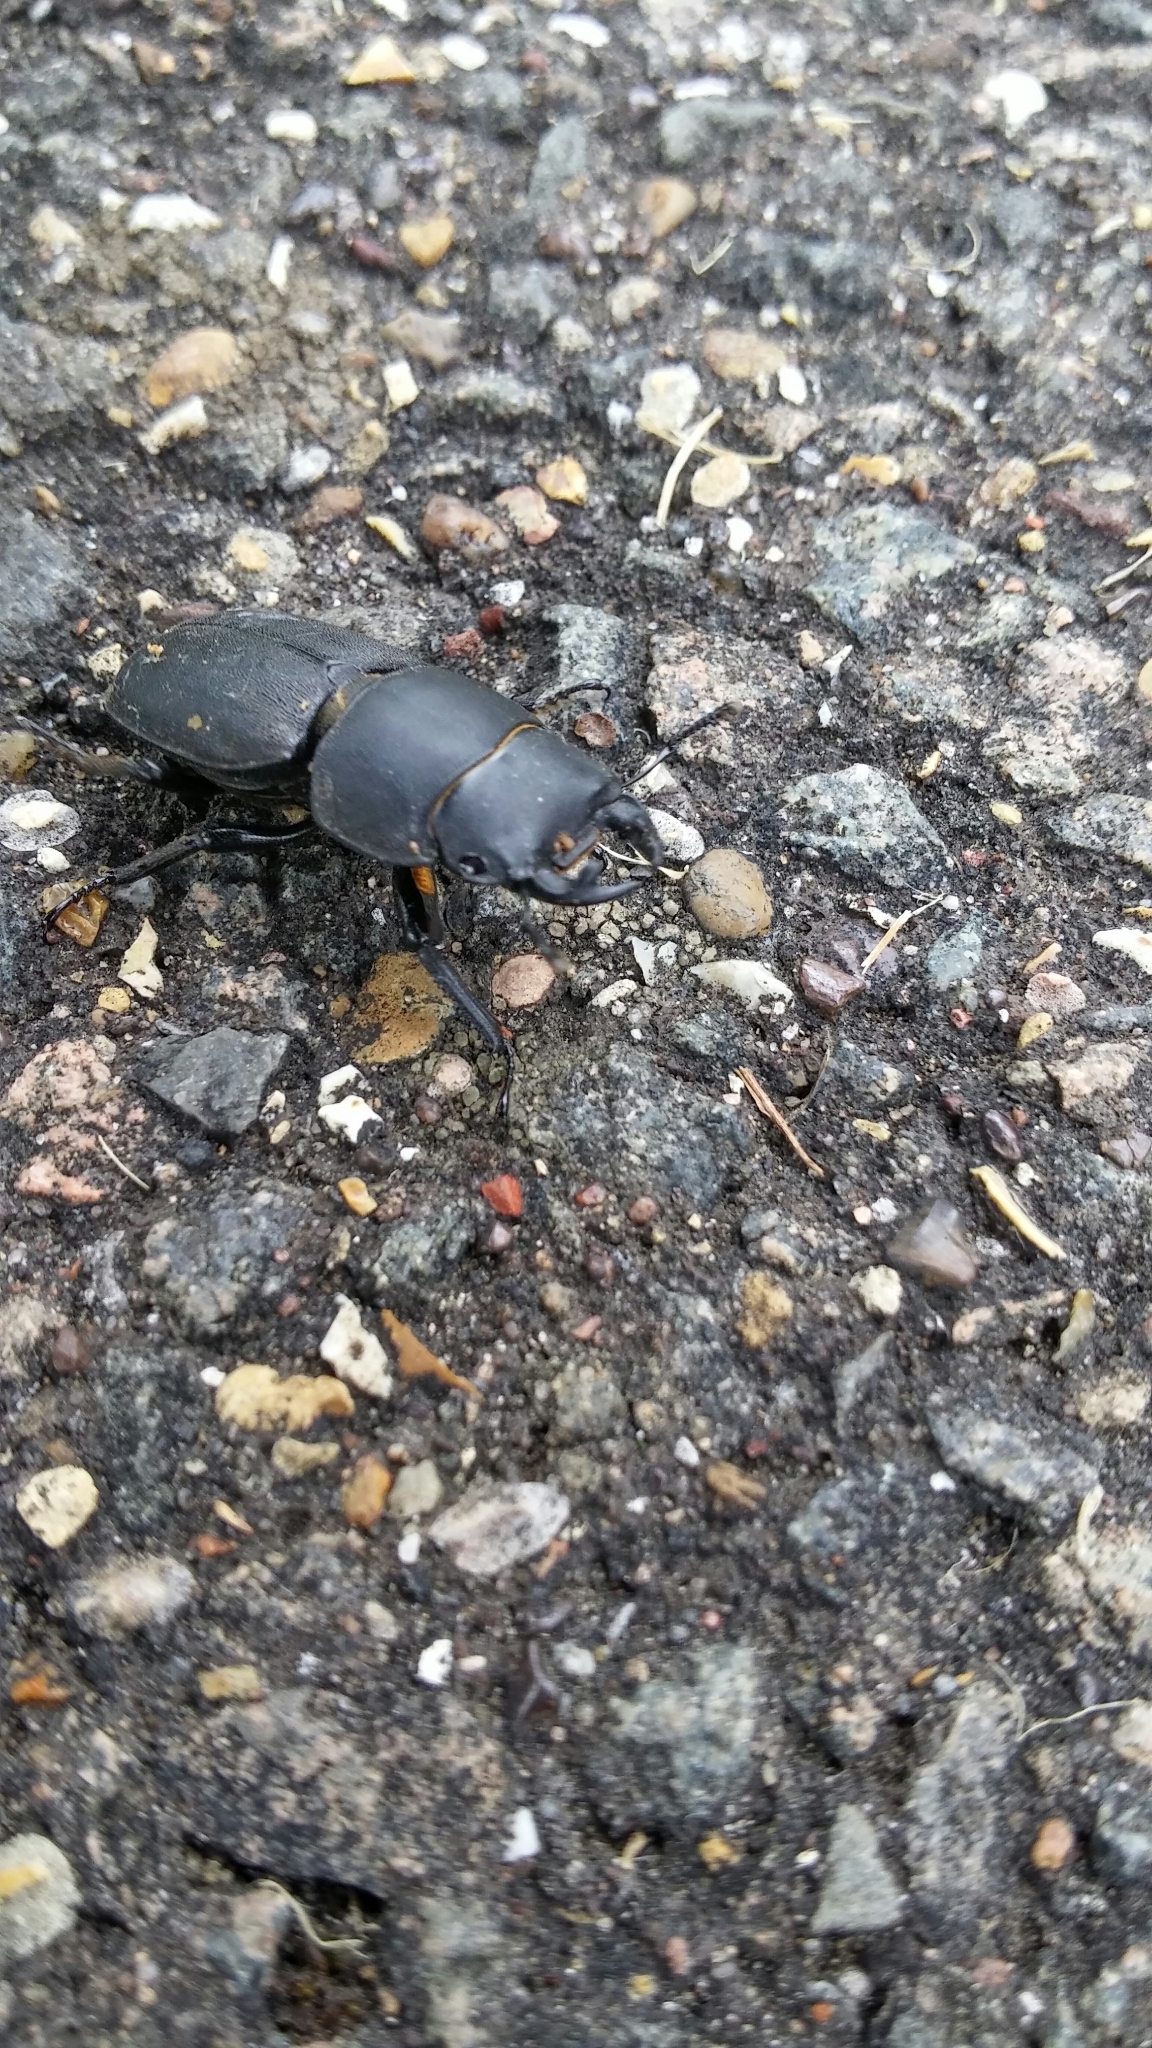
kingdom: Animalia
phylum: Arthropoda
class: Insecta
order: Coleoptera
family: Lucanidae
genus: Dorcus
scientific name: Dorcus parallelipipedus
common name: Lesser stag beetle
